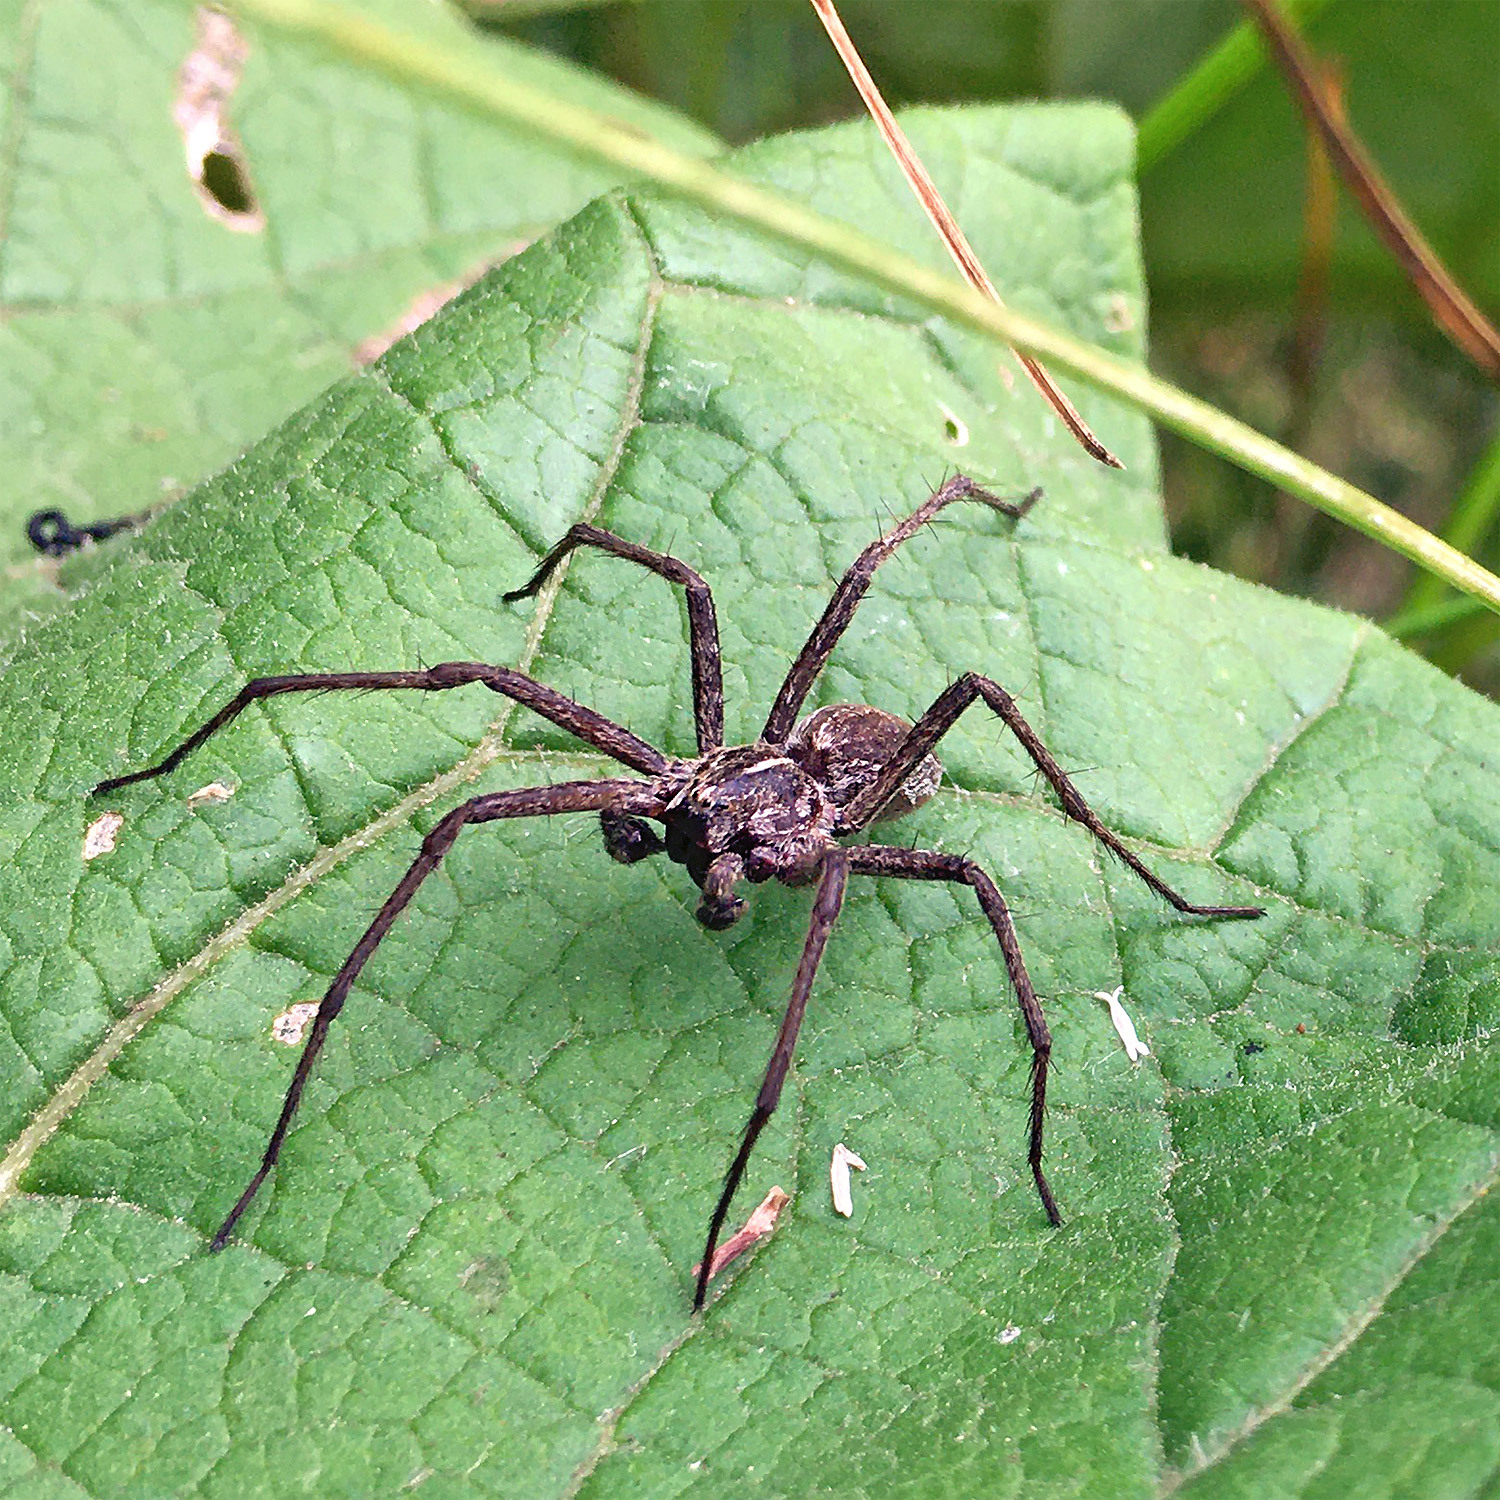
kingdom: Animalia
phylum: Arthropoda
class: Arachnida
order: Araneae
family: Pisauridae
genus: Pisaura
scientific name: Pisaura mirabilis
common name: Tent spider
